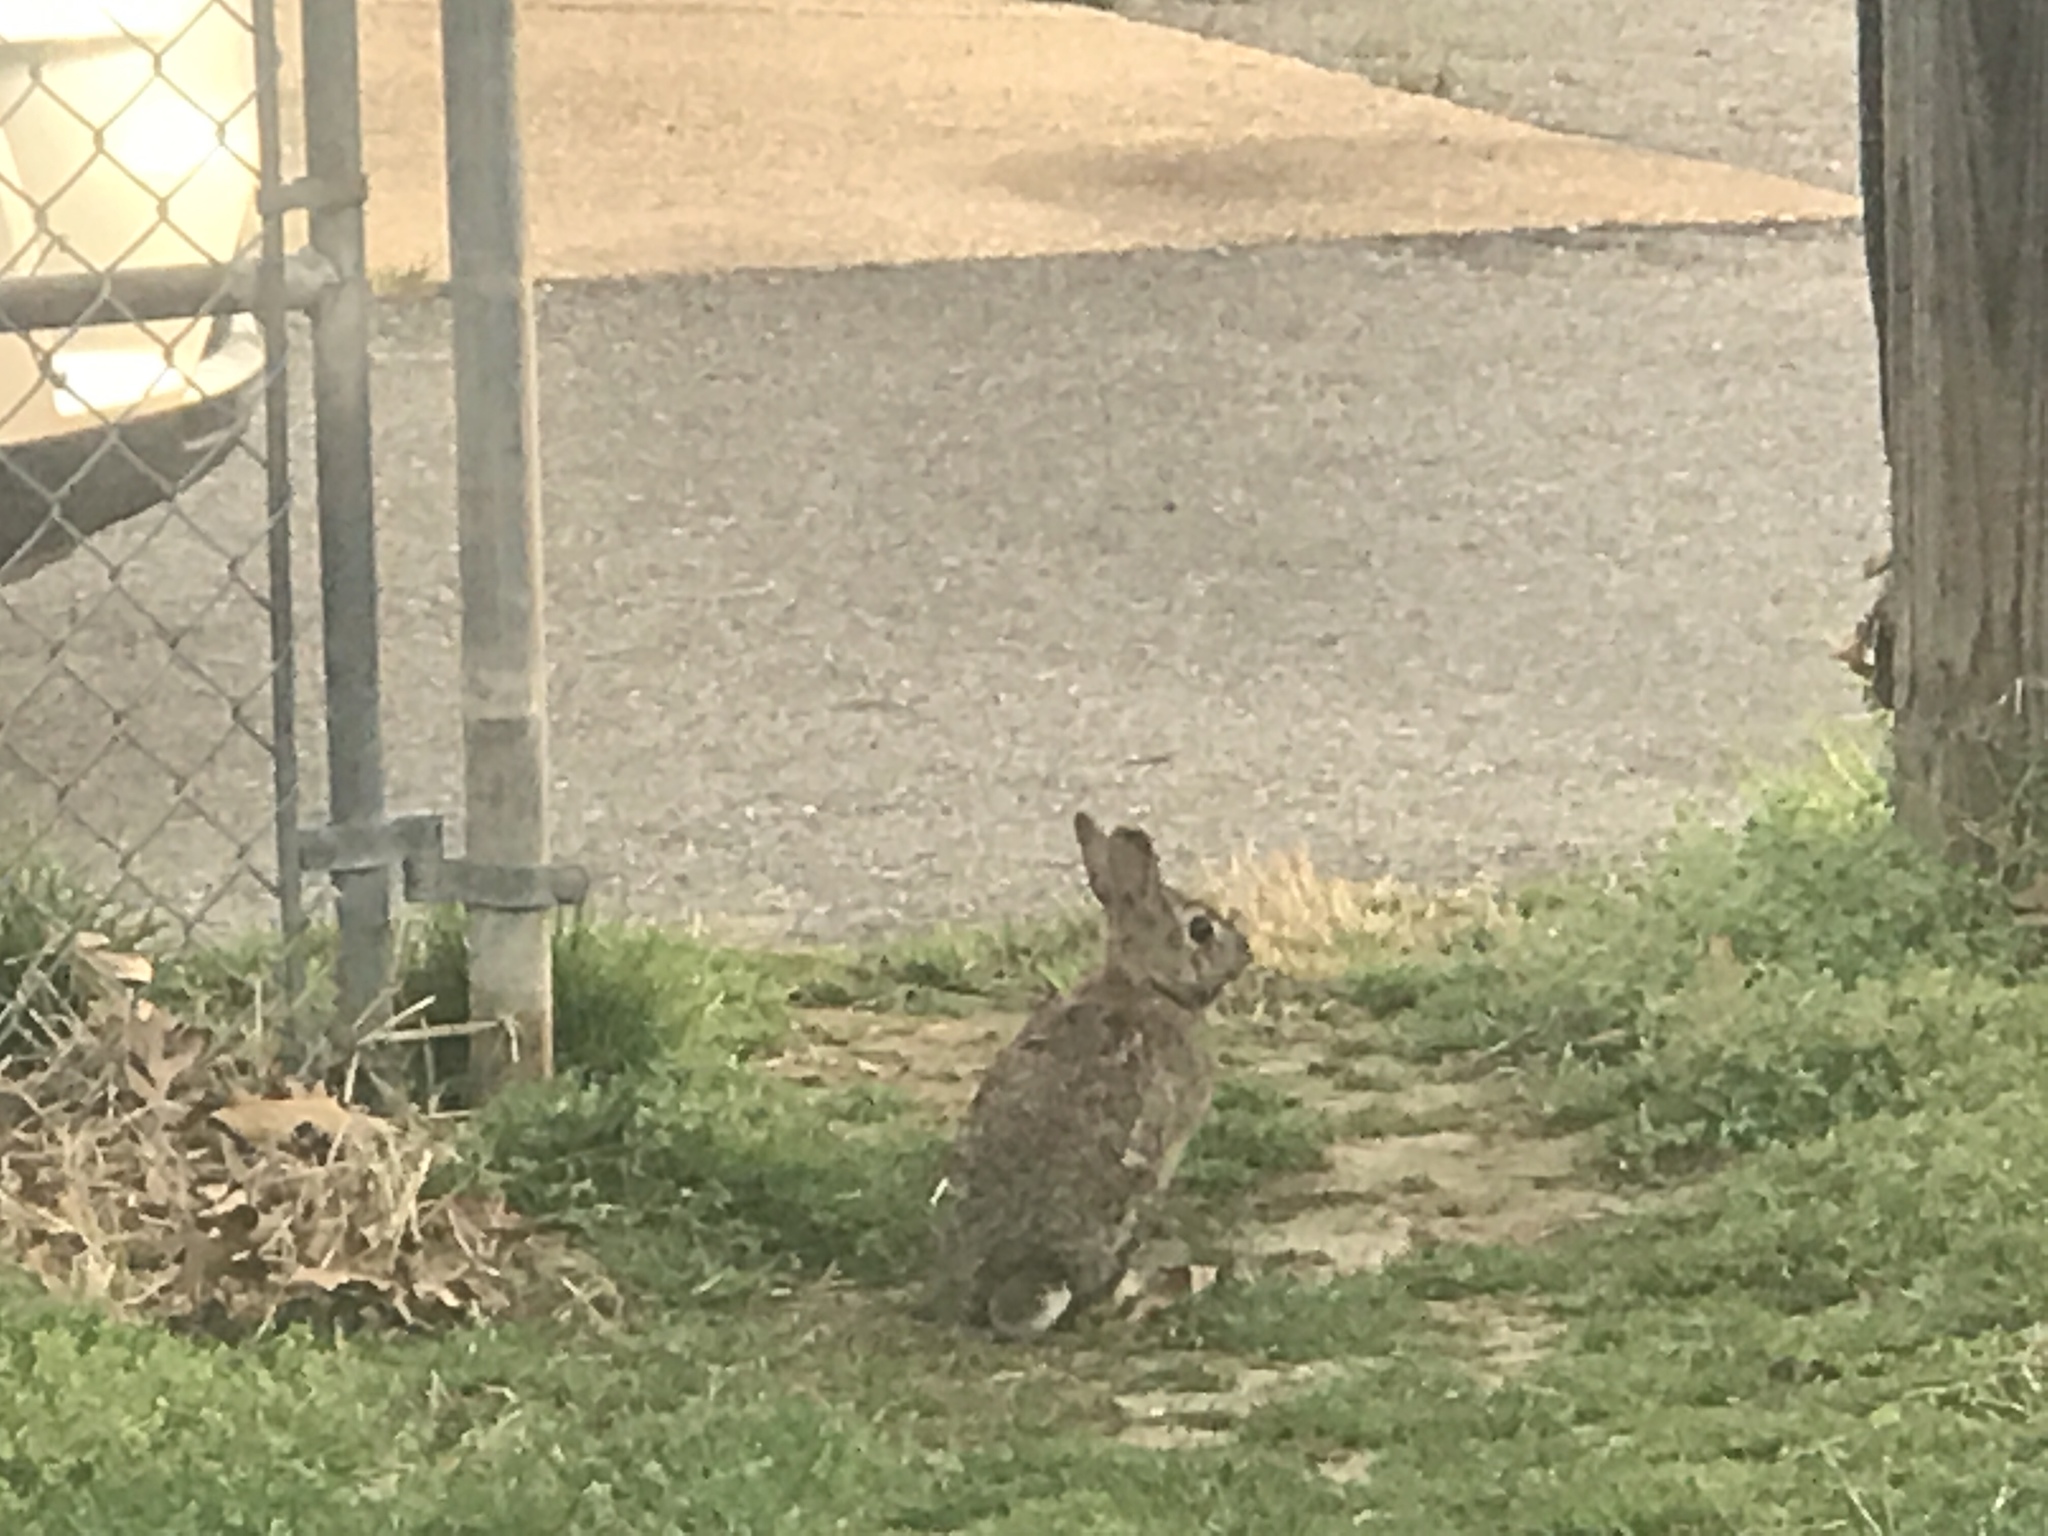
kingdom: Animalia
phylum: Chordata
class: Mammalia
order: Lagomorpha
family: Leporidae
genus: Sylvilagus
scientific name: Sylvilagus floridanus
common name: Eastern cottontail
